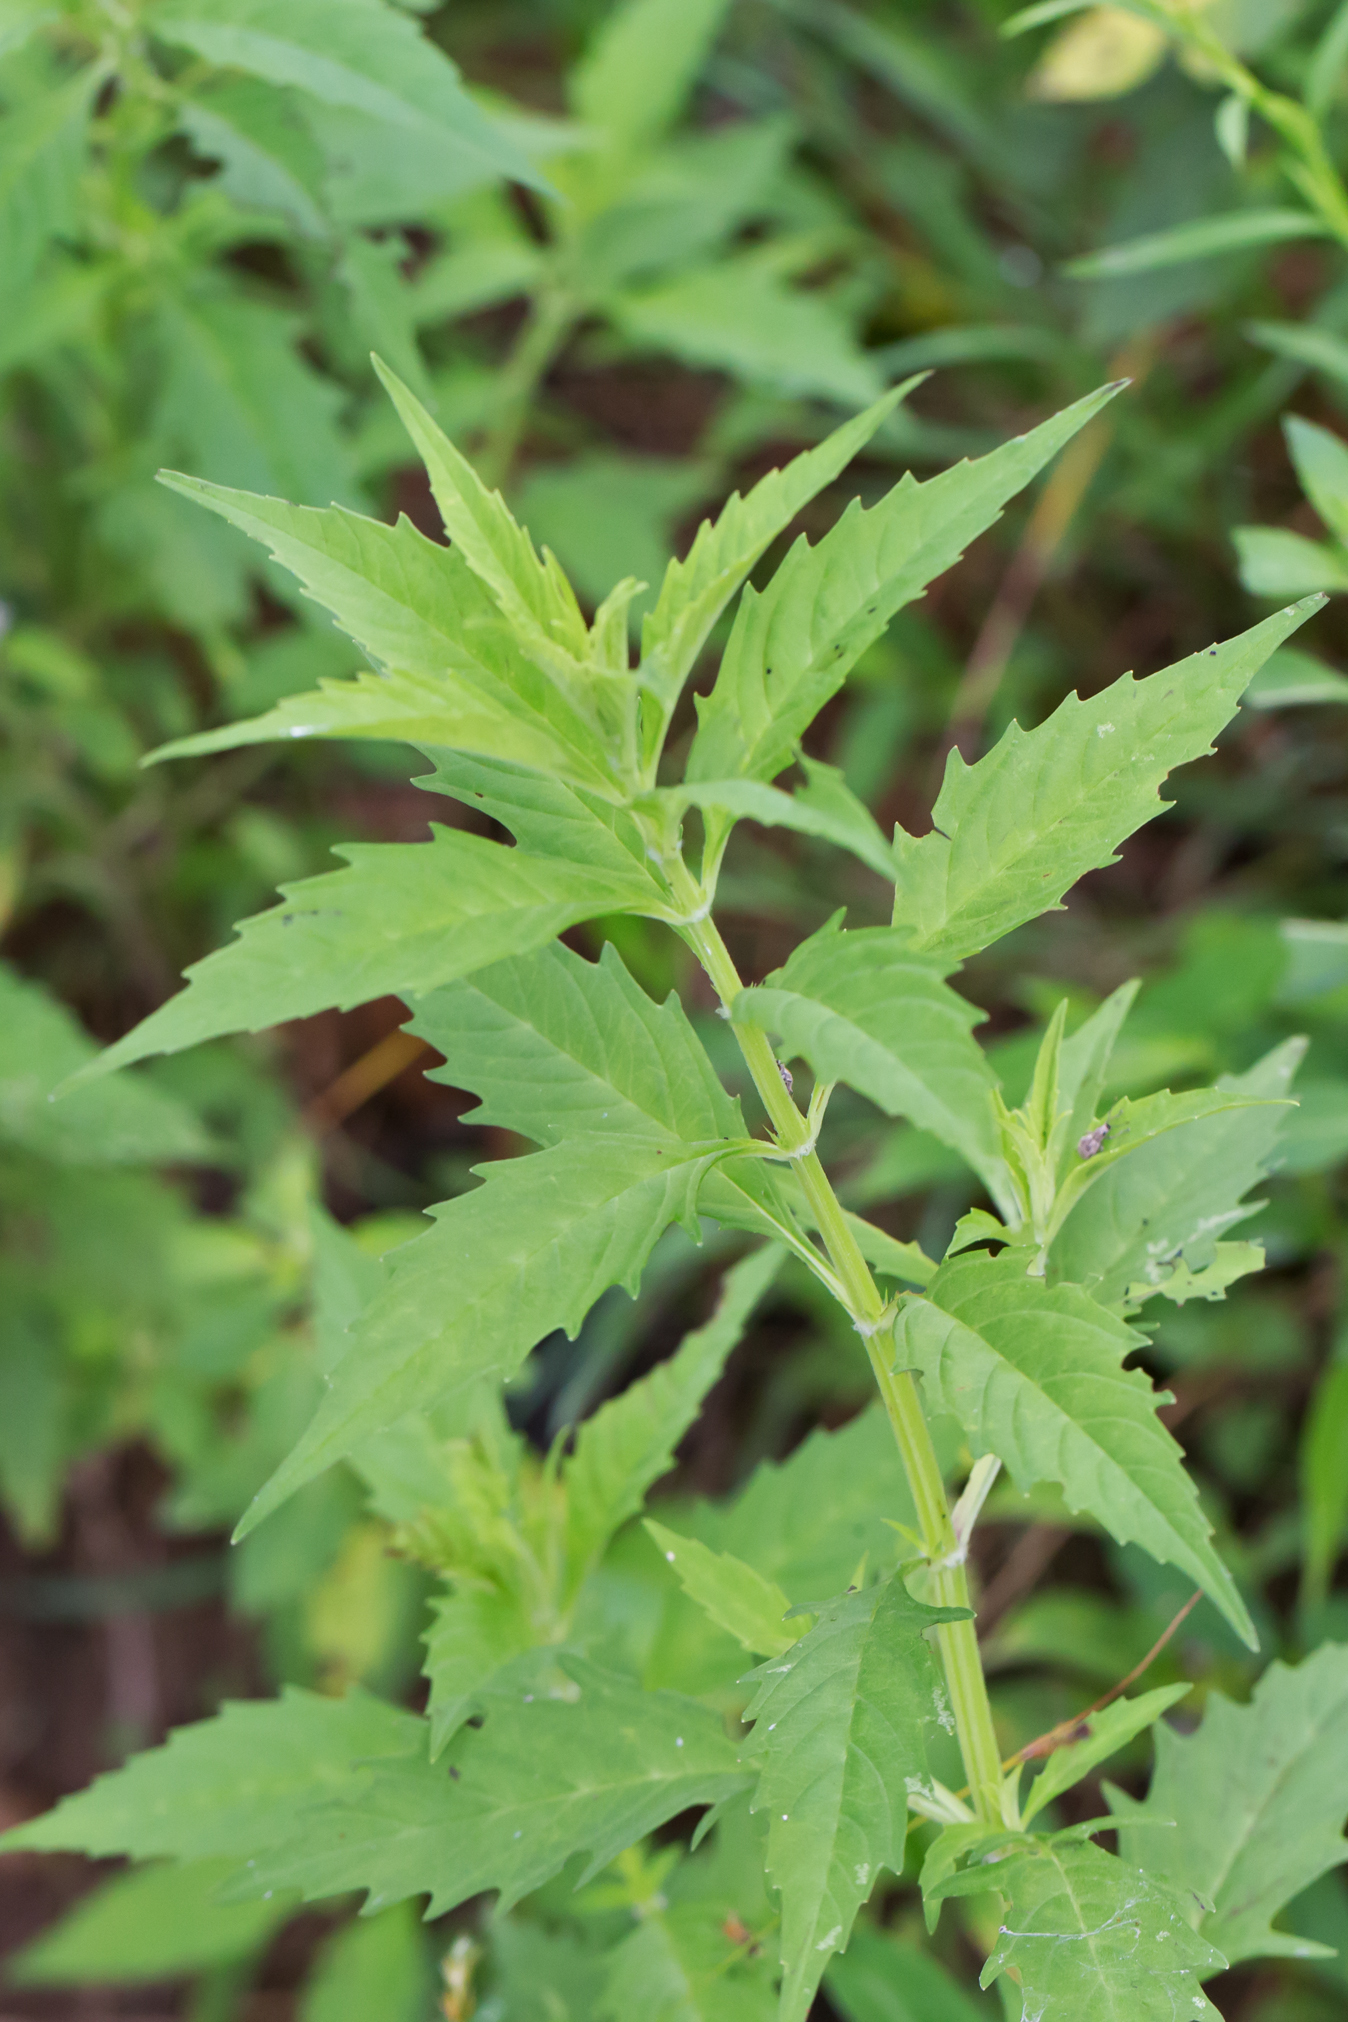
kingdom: Plantae
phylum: Tracheophyta
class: Magnoliopsida
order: Lamiales
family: Lamiaceae
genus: Lycopus
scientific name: Lycopus americanus
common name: American bugleweed
